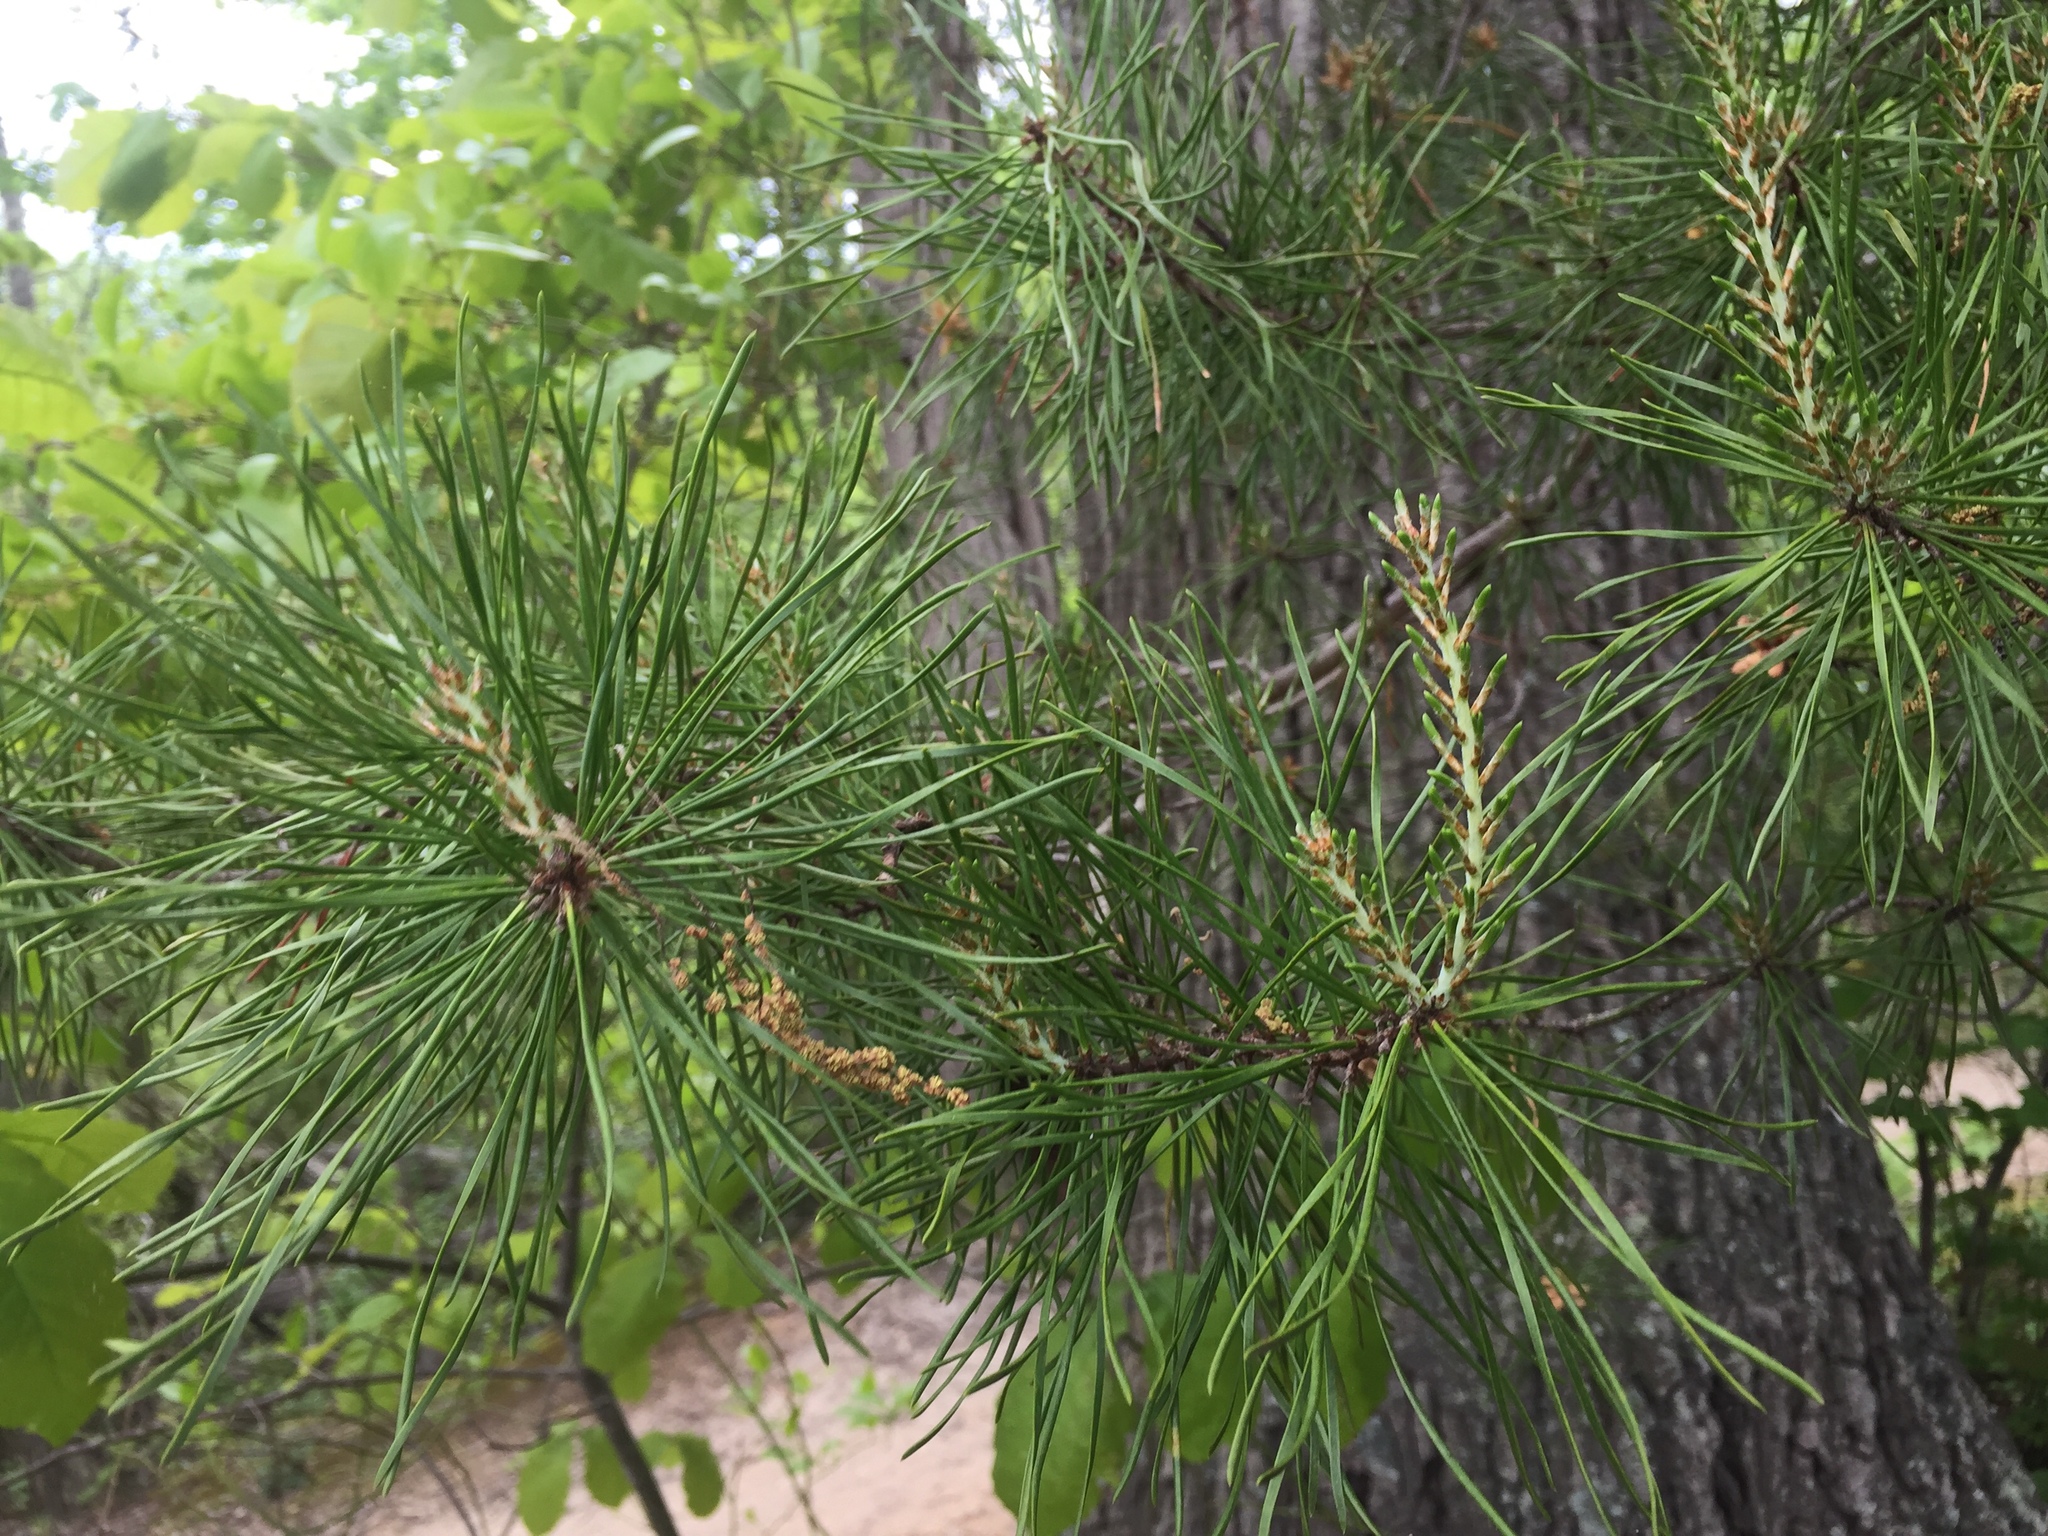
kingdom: Plantae
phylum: Tracheophyta
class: Pinopsida
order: Pinales
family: Pinaceae
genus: Pinus
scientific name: Pinus virginiana
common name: Scrub pine
